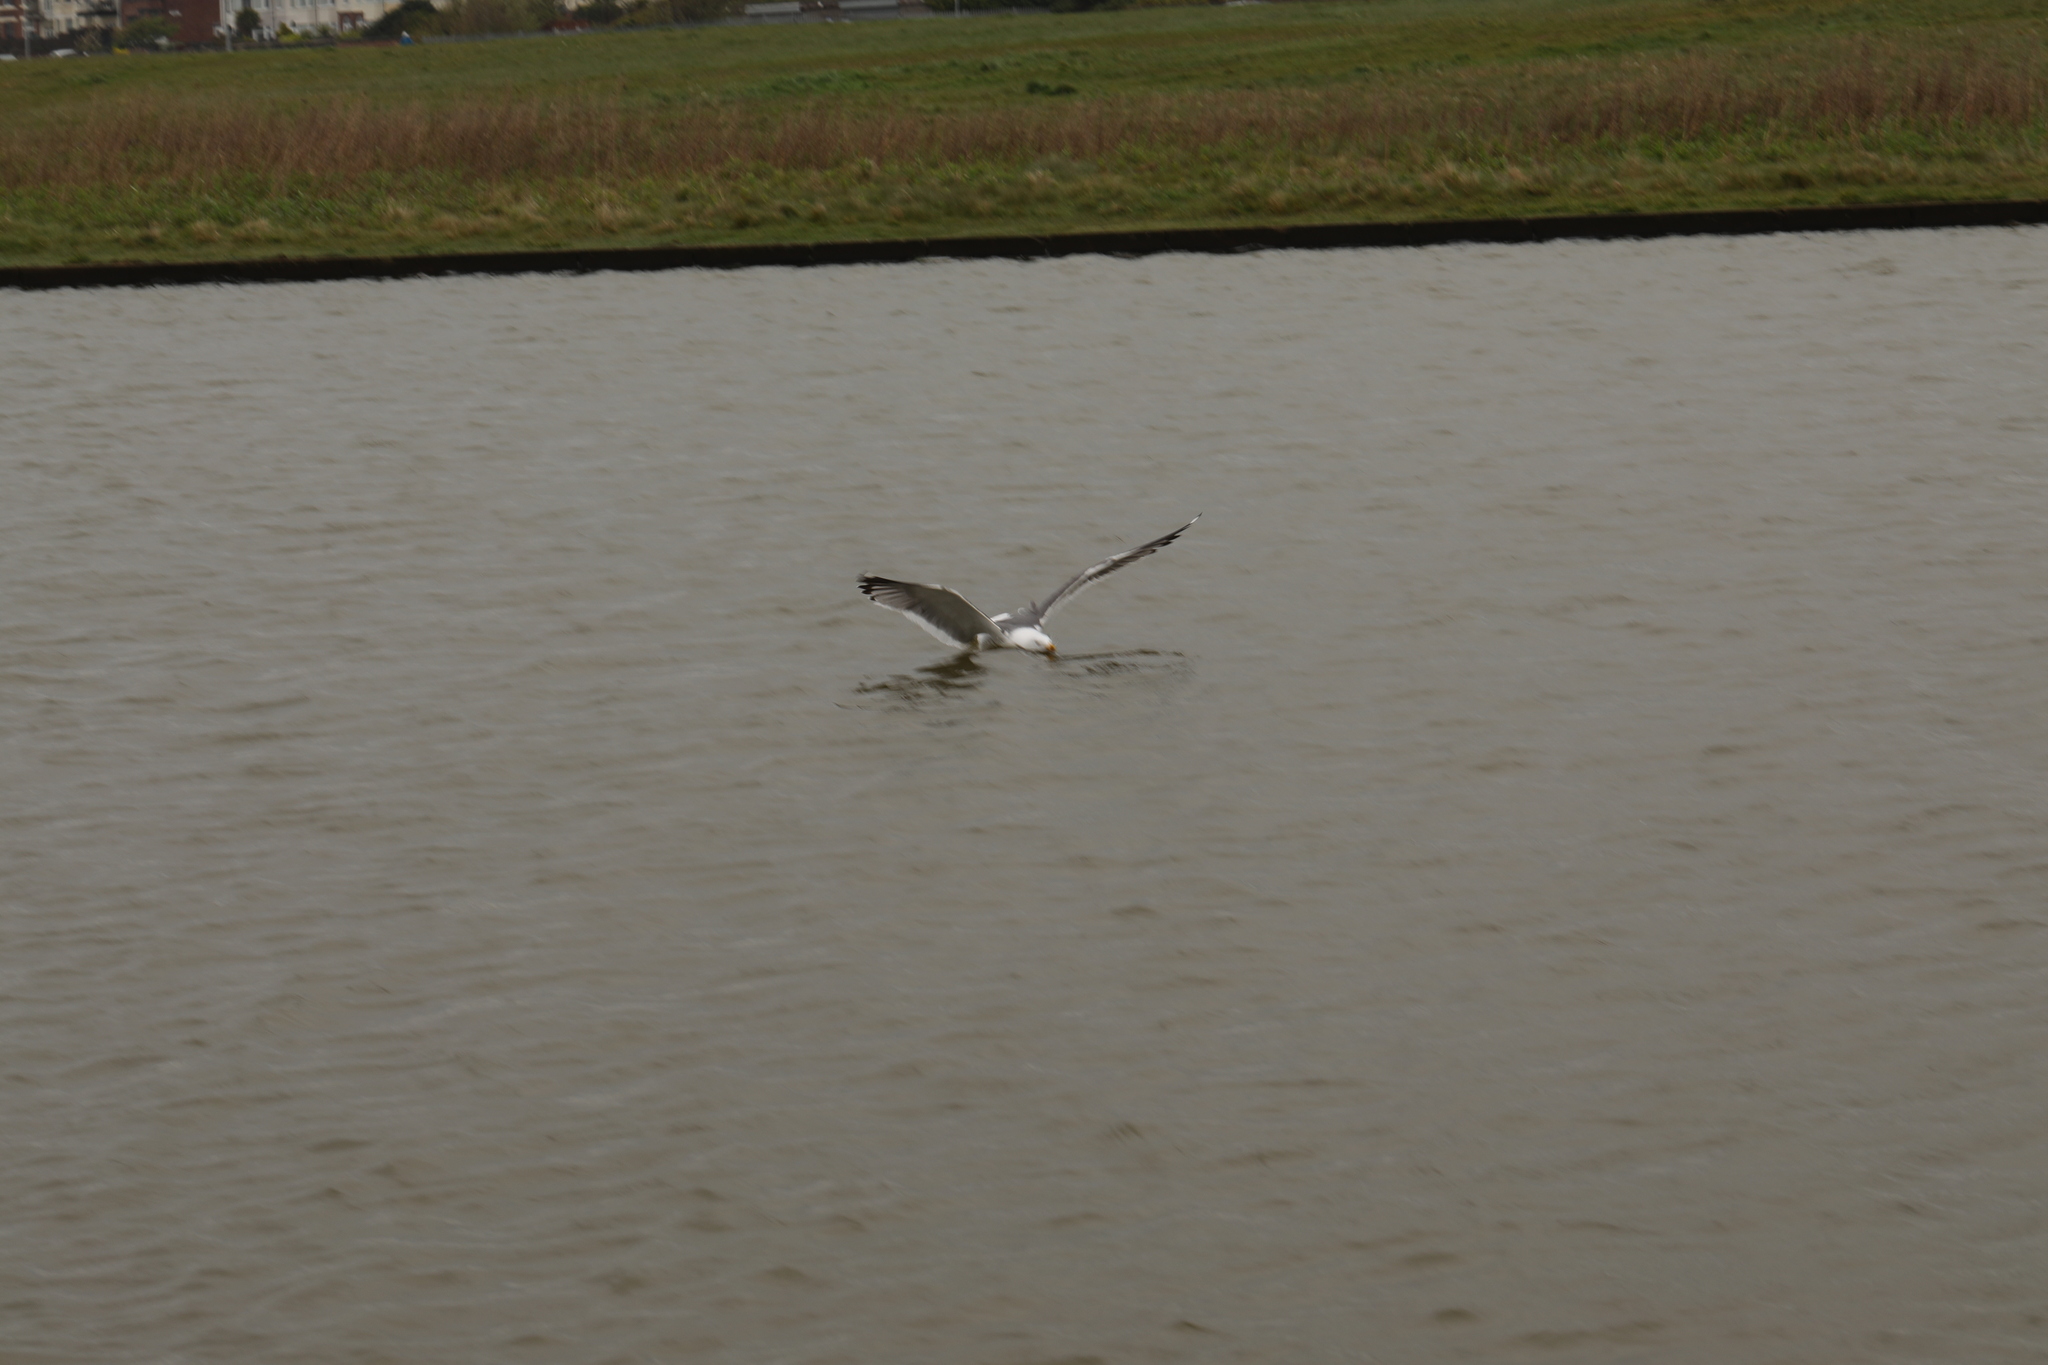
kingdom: Animalia
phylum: Chordata
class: Aves
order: Charadriiformes
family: Laridae
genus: Larus
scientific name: Larus fuscus
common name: Lesser black-backed gull
